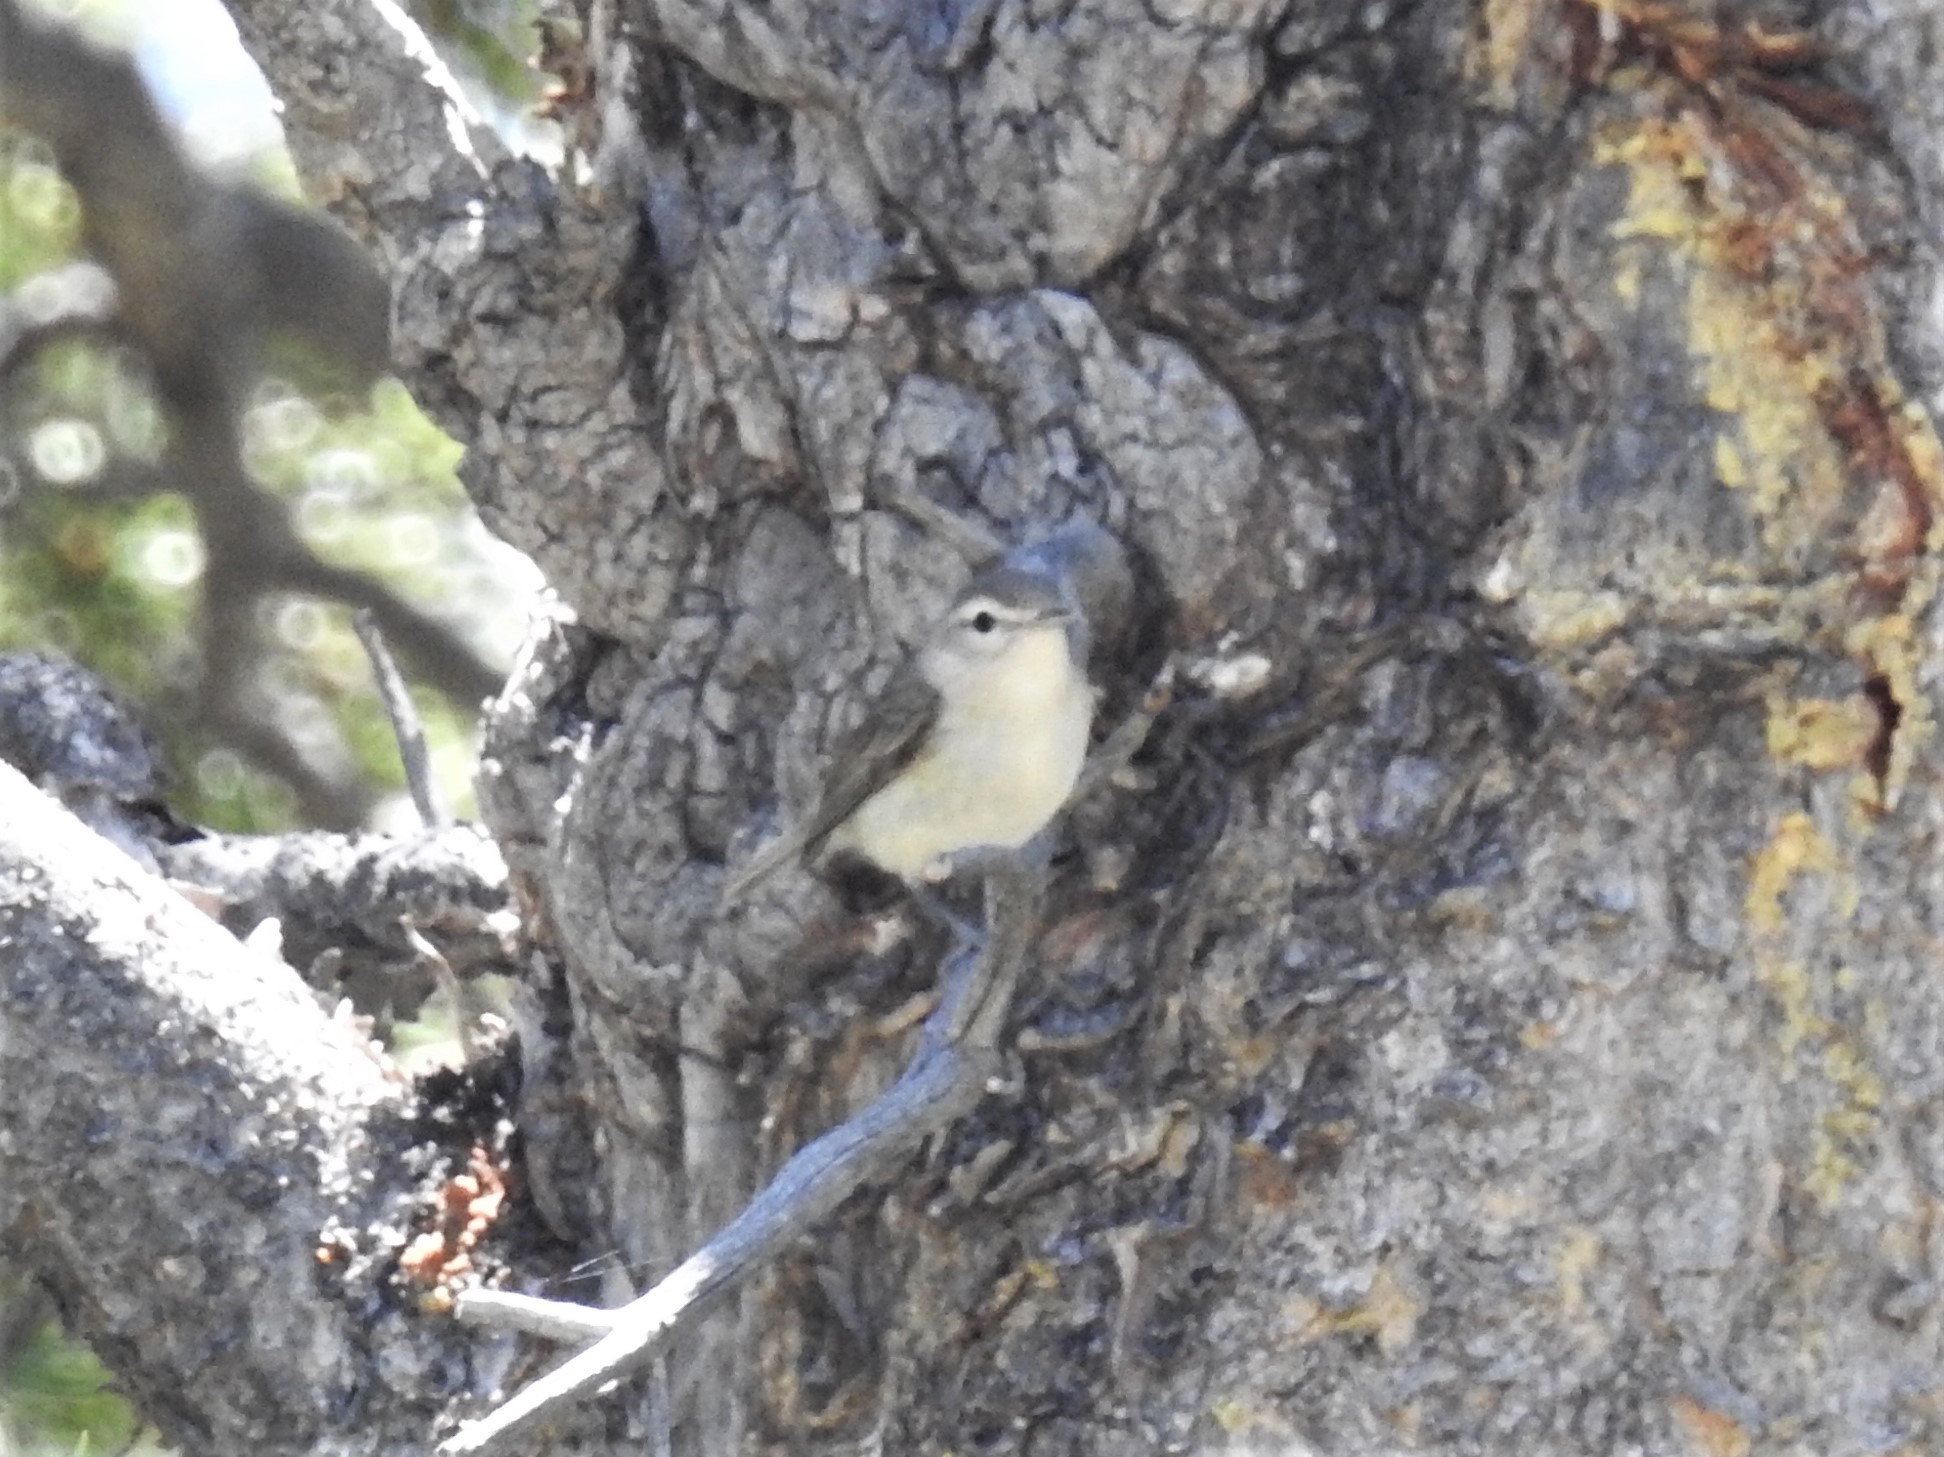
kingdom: Animalia
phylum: Chordata
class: Aves
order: Passeriformes
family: Vireonidae
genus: Vireo
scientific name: Vireo gilvus
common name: Warbling vireo
